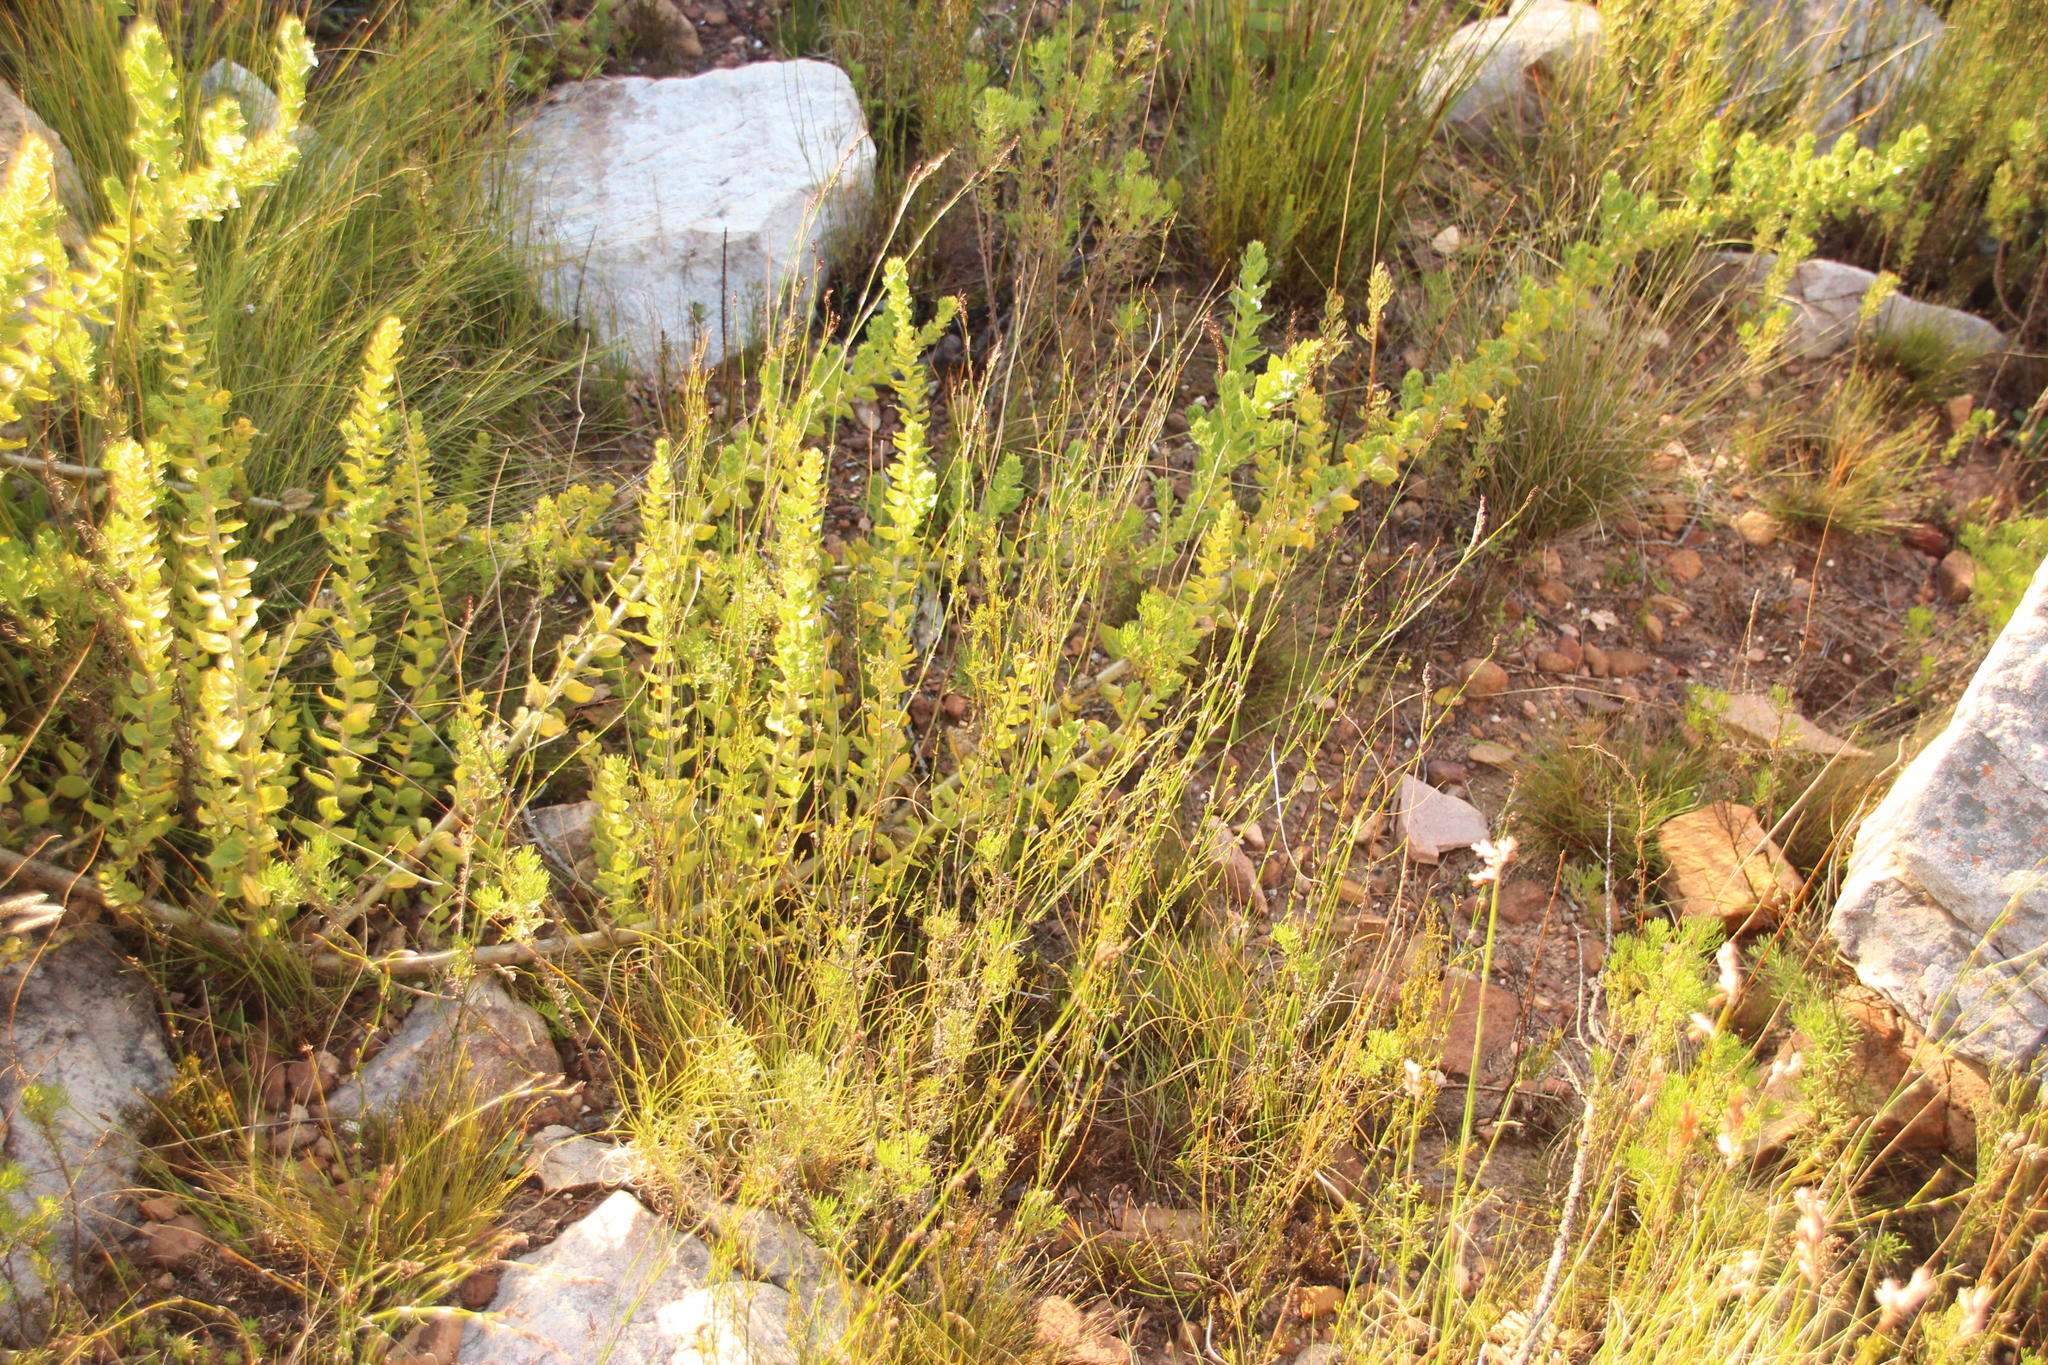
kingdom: Plantae
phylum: Tracheophyta
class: Magnoliopsida
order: Lamiales
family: Scrophulariaceae
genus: Oftia
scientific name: Oftia africana
